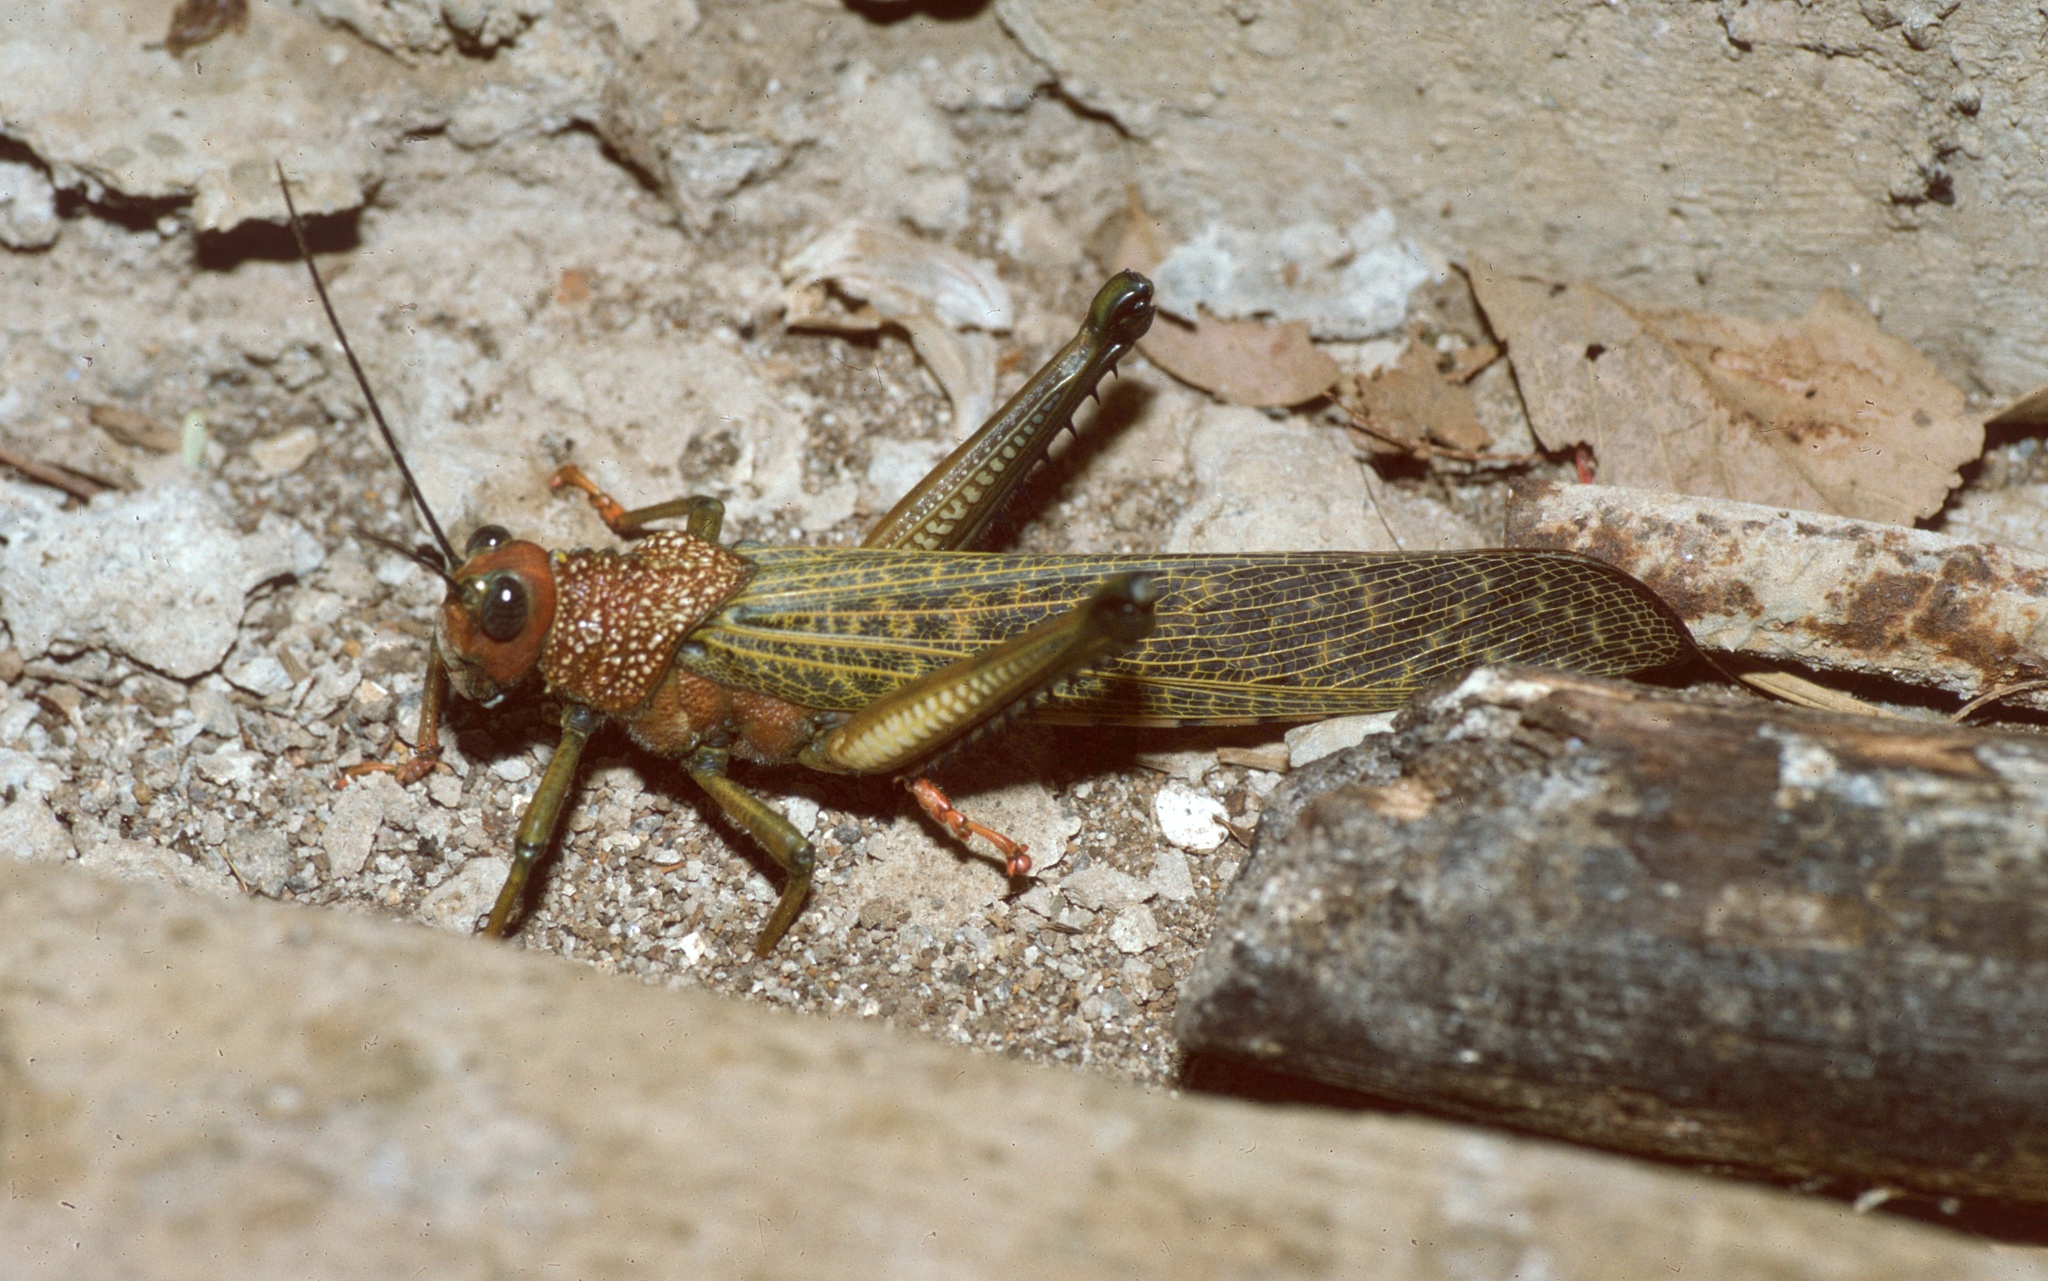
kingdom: Animalia
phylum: Arthropoda
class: Insecta
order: Orthoptera
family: Romaleidae
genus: Tropidacris
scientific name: Tropidacris cristata
